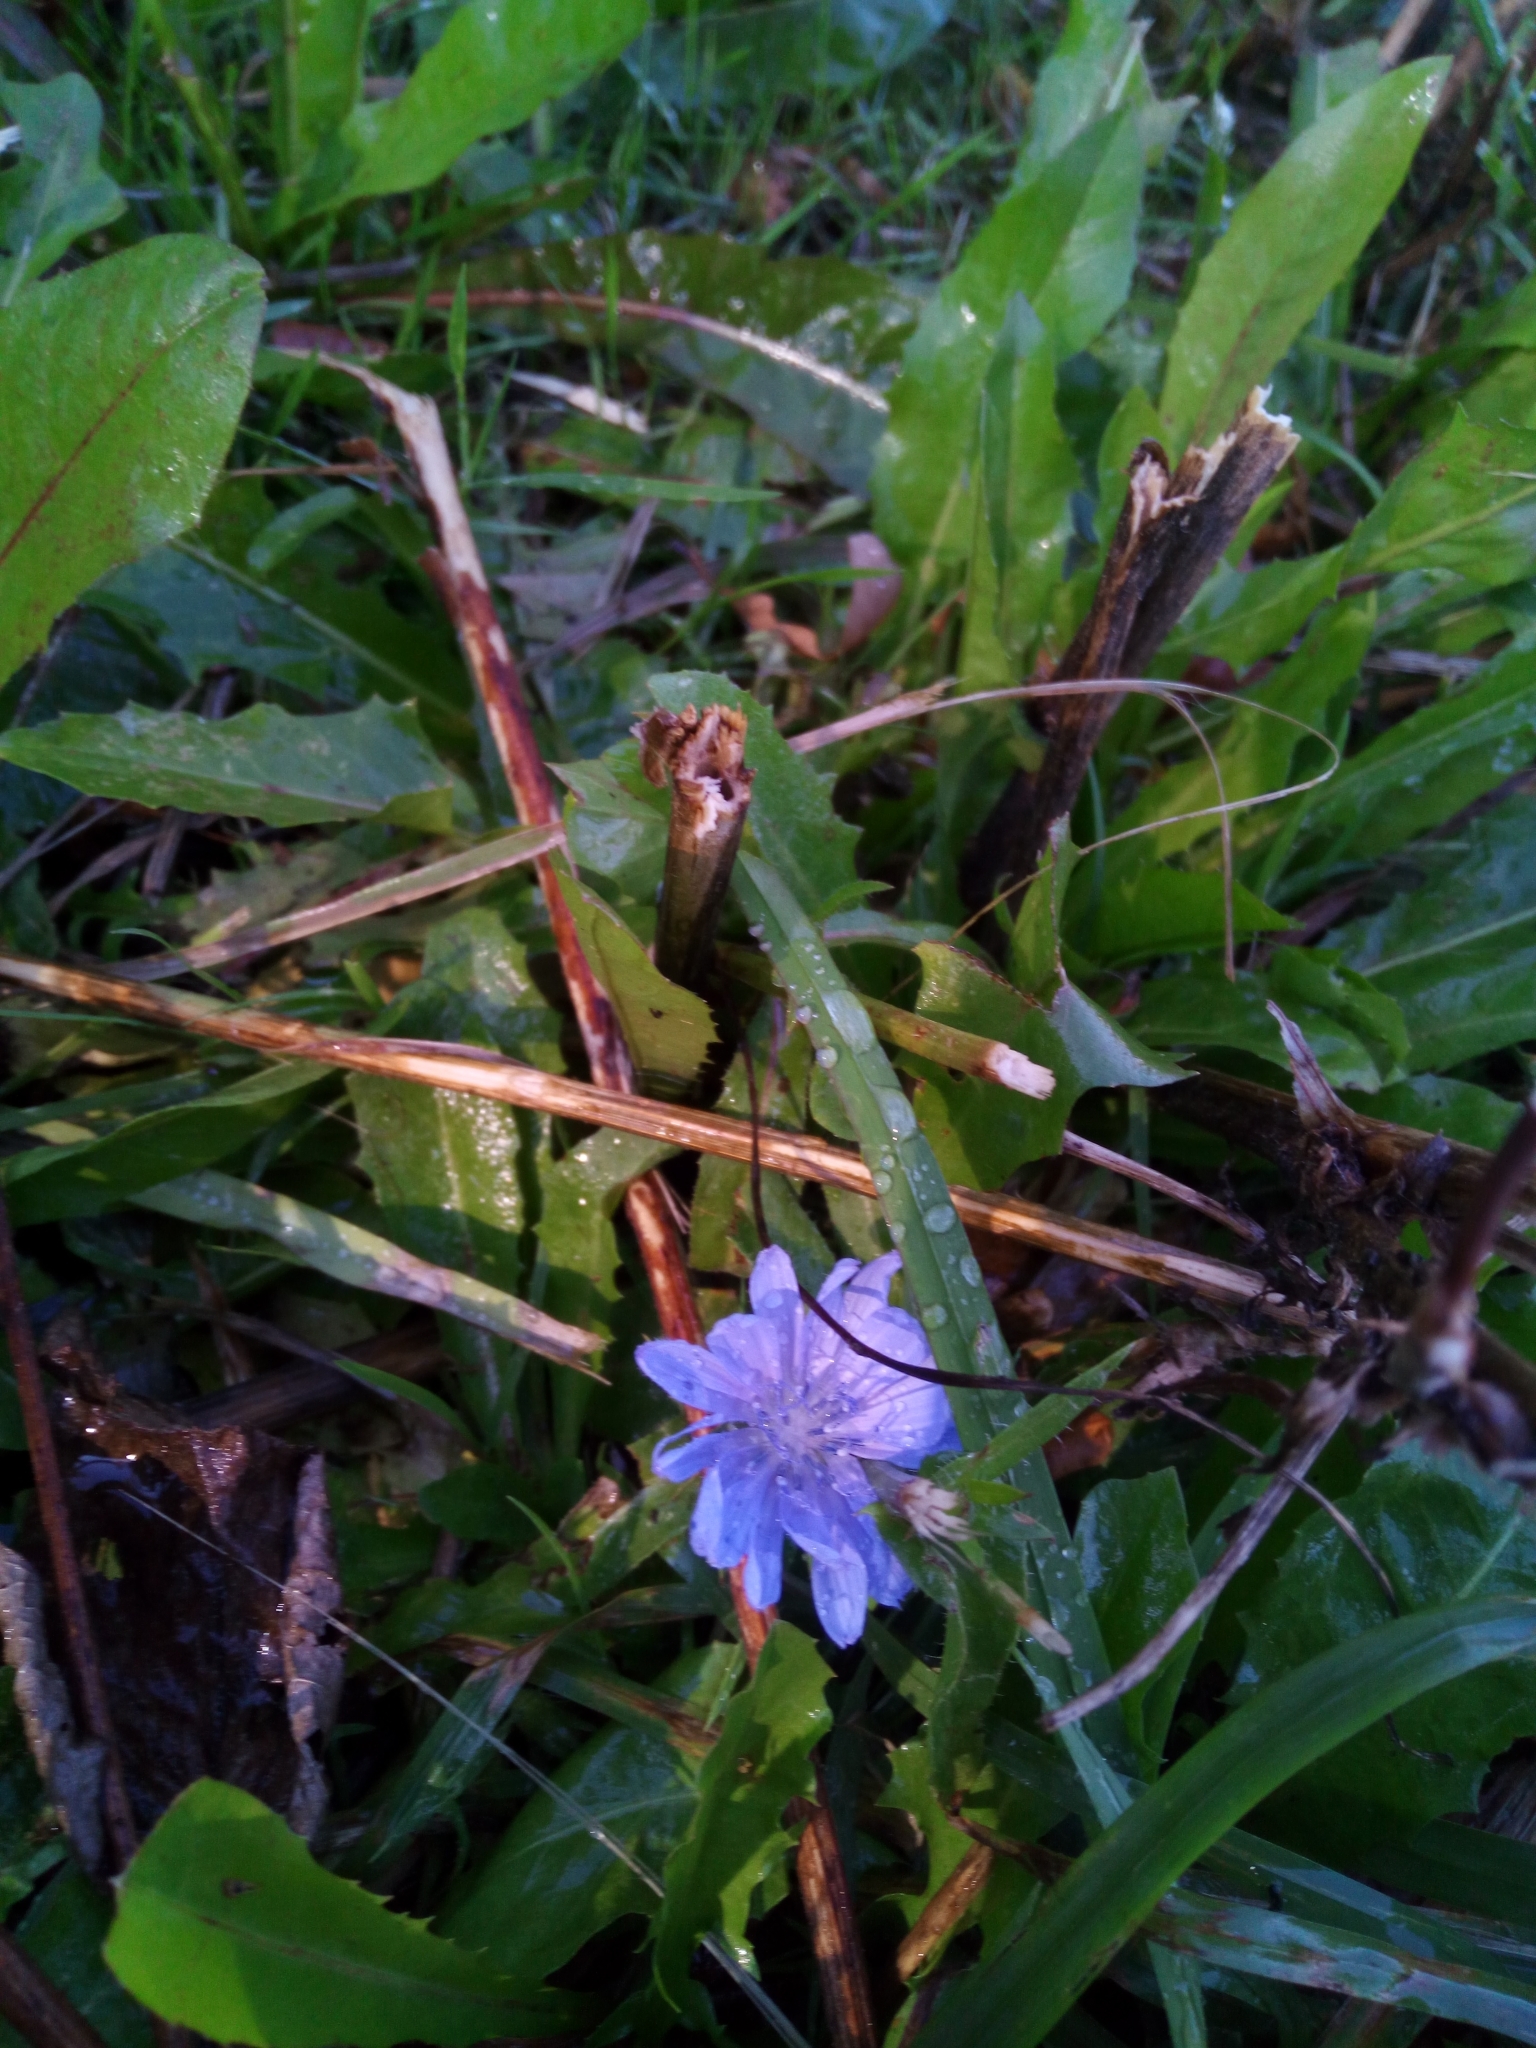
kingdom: Plantae
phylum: Tracheophyta
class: Magnoliopsida
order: Asterales
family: Asteraceae
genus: Cichorium
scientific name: Cichorium intybus
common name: Chicory
